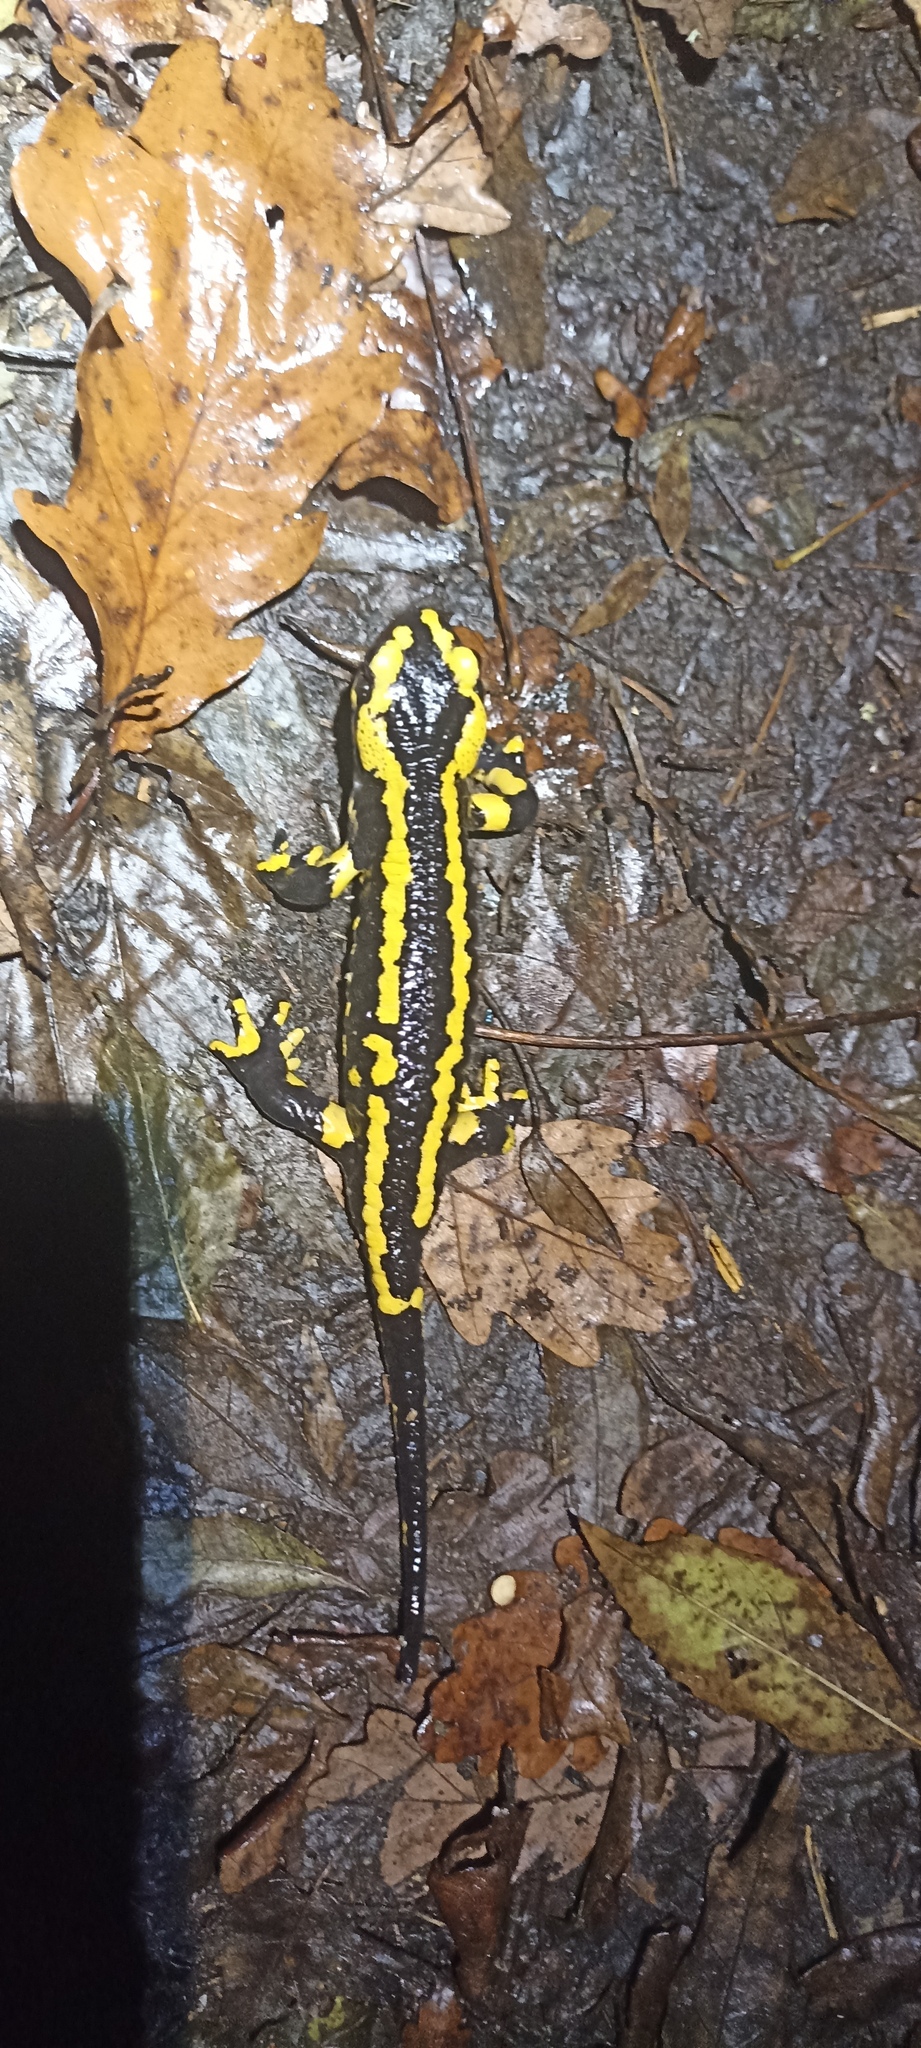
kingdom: Animalia
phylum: Chordata
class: Amphibia
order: Caudata
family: Salamandridae
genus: Salamandra
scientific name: Salamandra salamandra
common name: Fire salamander
